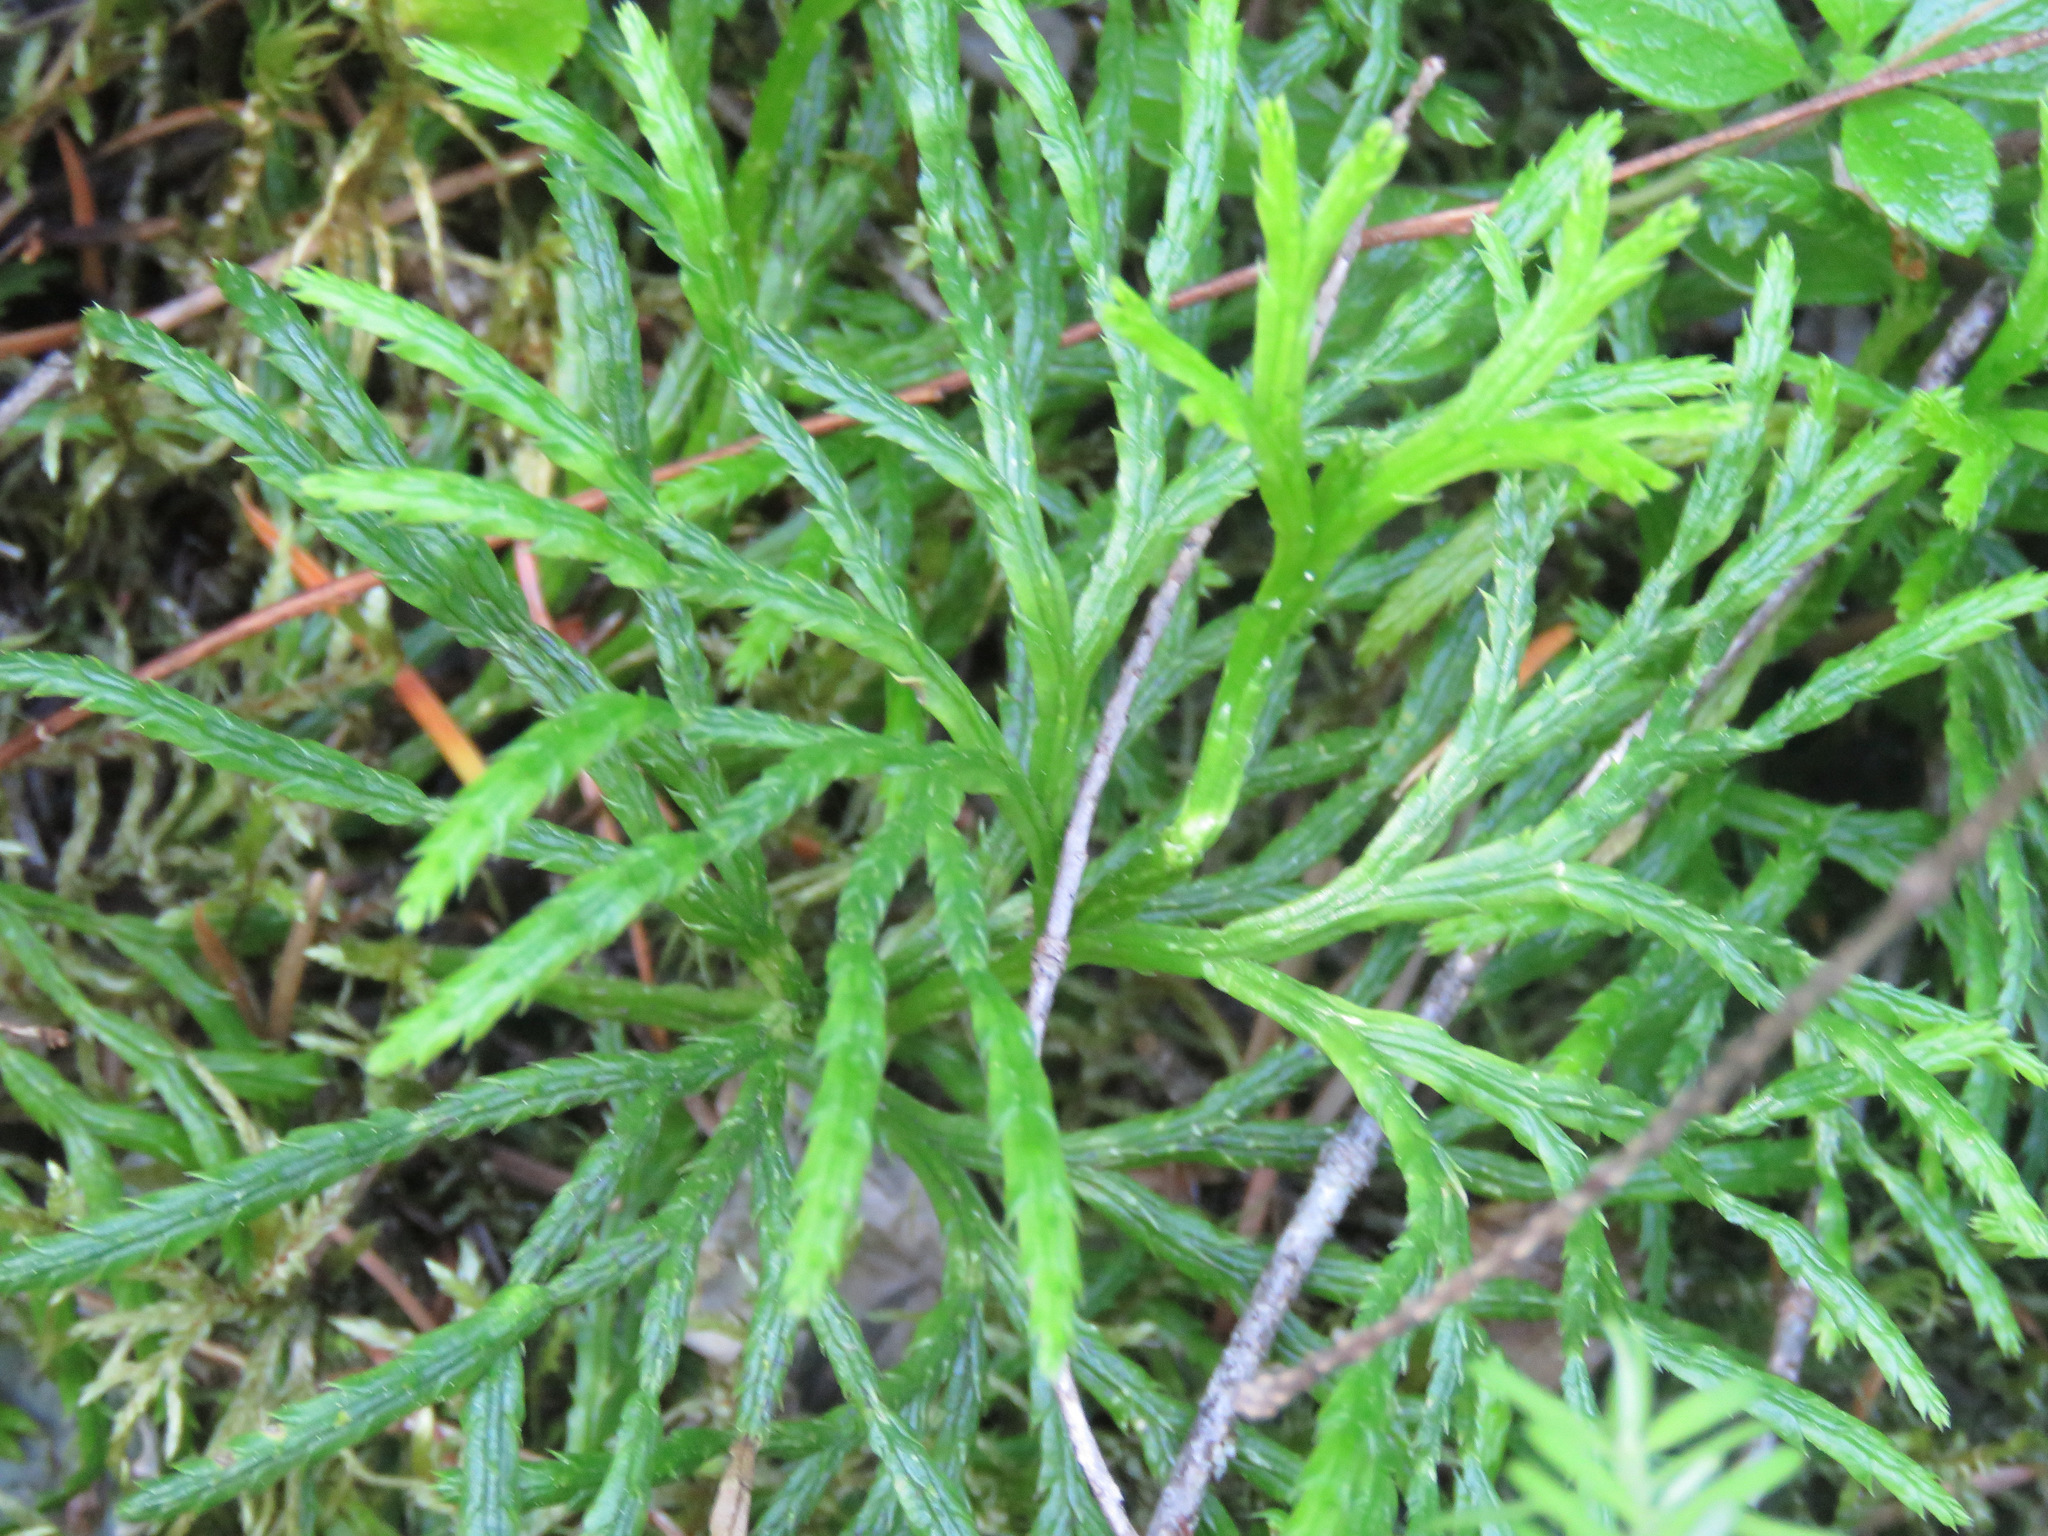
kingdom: Plantae
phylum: Tracheophyta
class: Lycopodiopsida
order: Lycopodiales
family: Lycopodiaceae
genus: Diphasiastrum
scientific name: Diphasiastrum complanatum
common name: Northern running-pine
